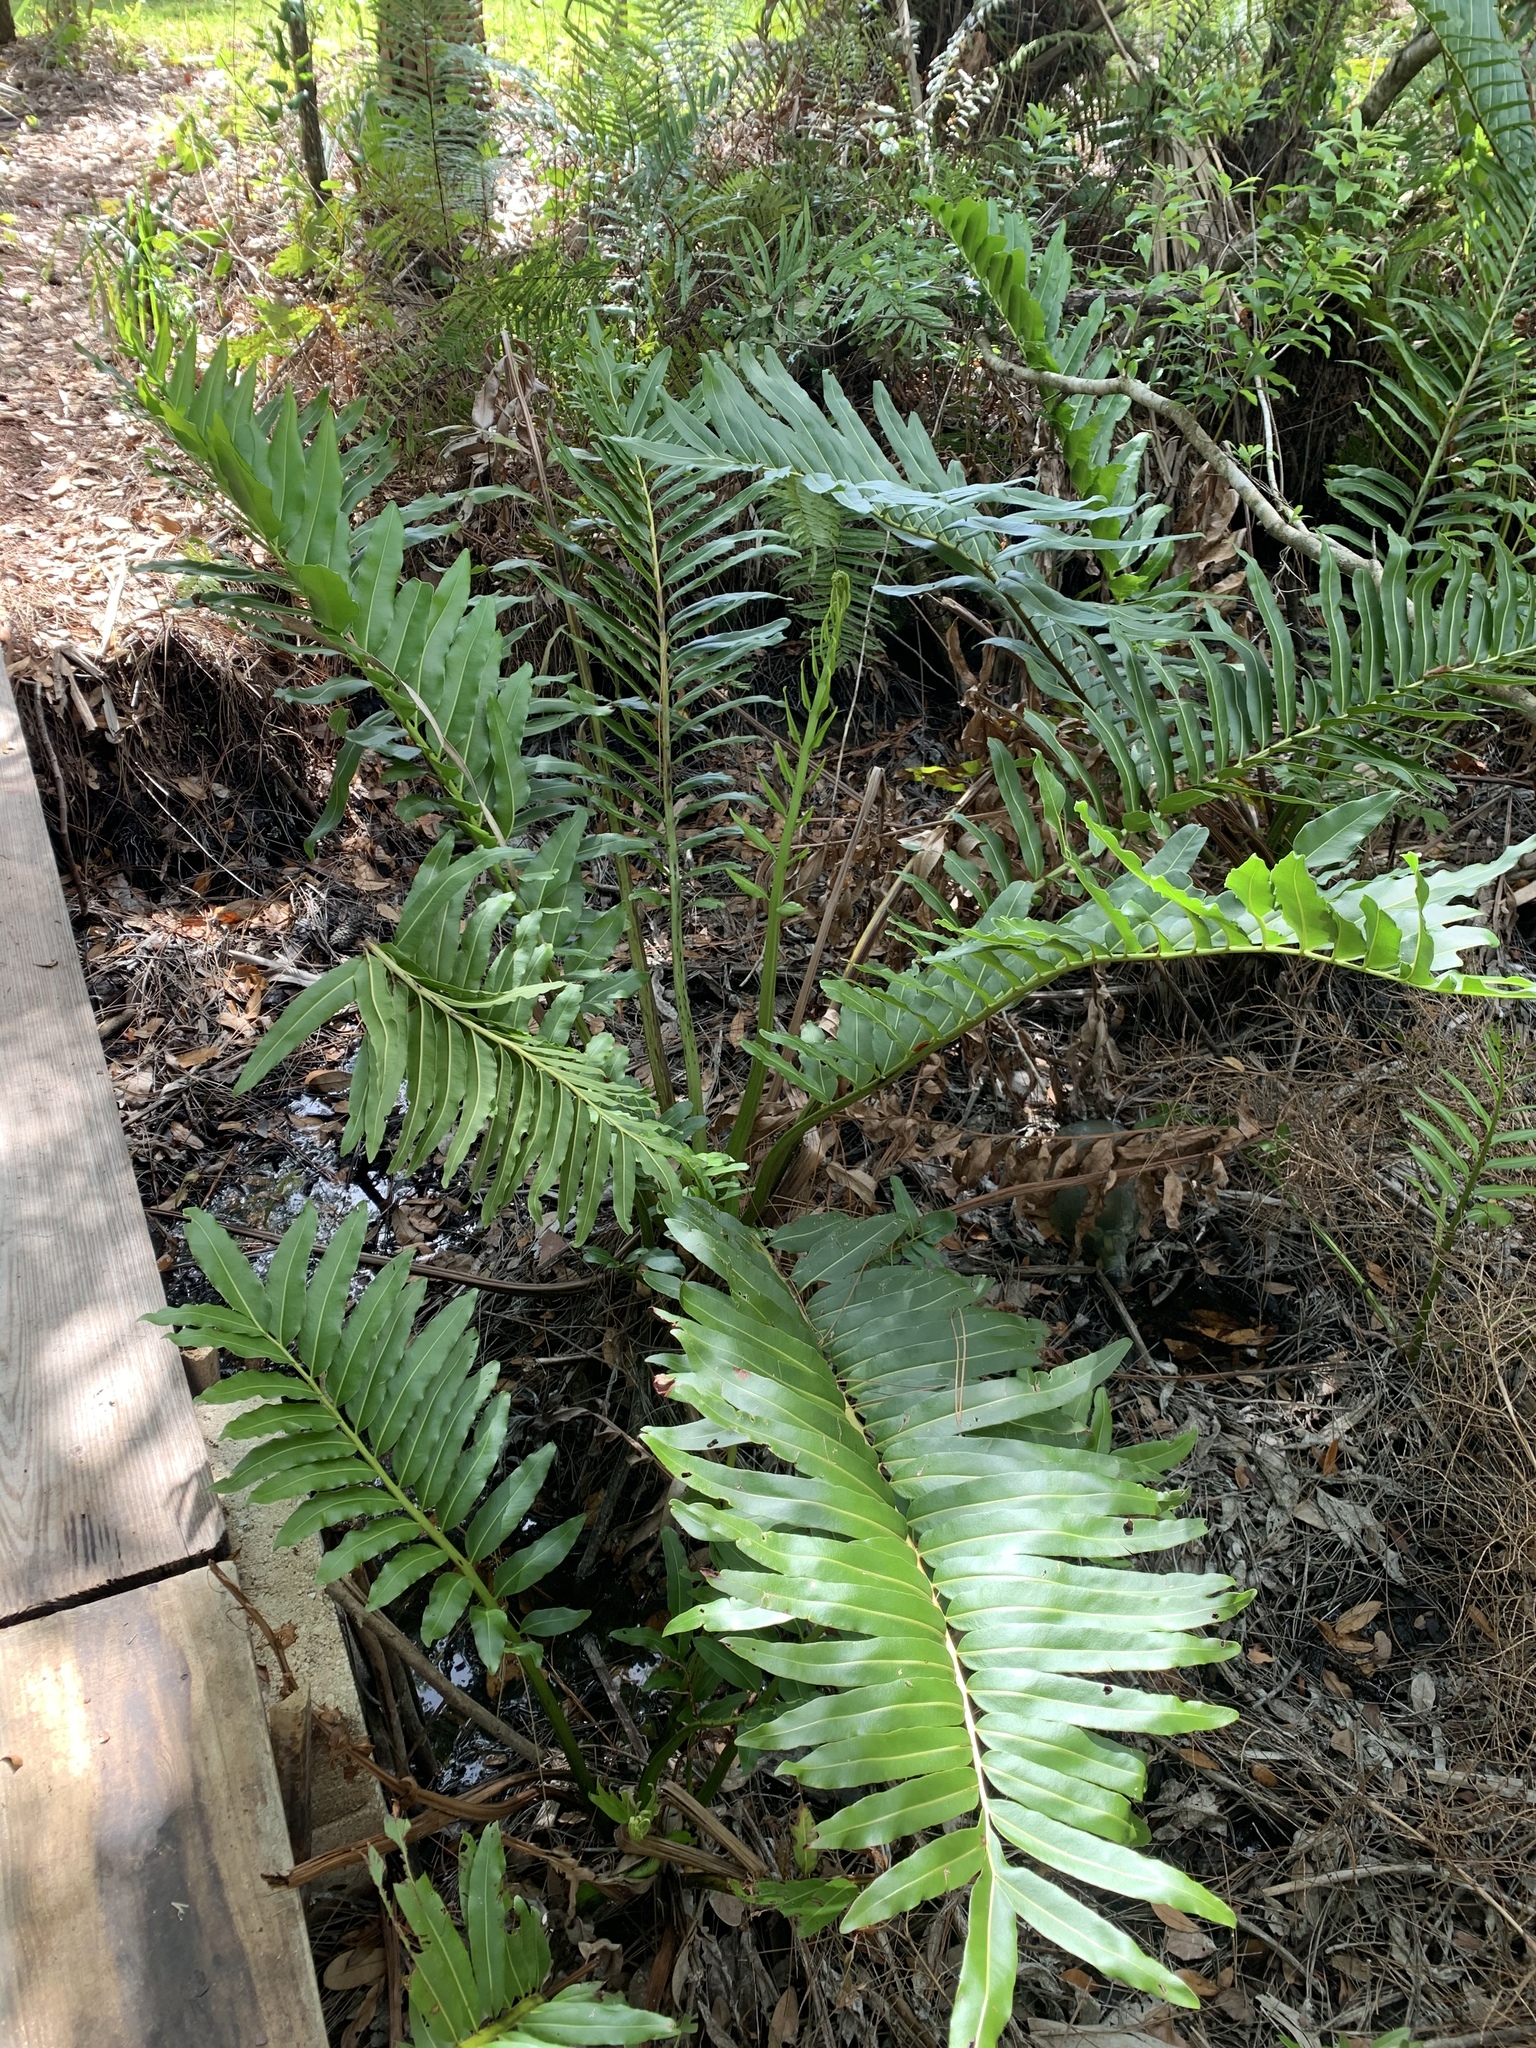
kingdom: Plantae
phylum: Tracheophyta
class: Polypodiopsida
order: Polypodiales
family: Pteridaceae
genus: Acrostichum
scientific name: Acrostichum danaeifolium
